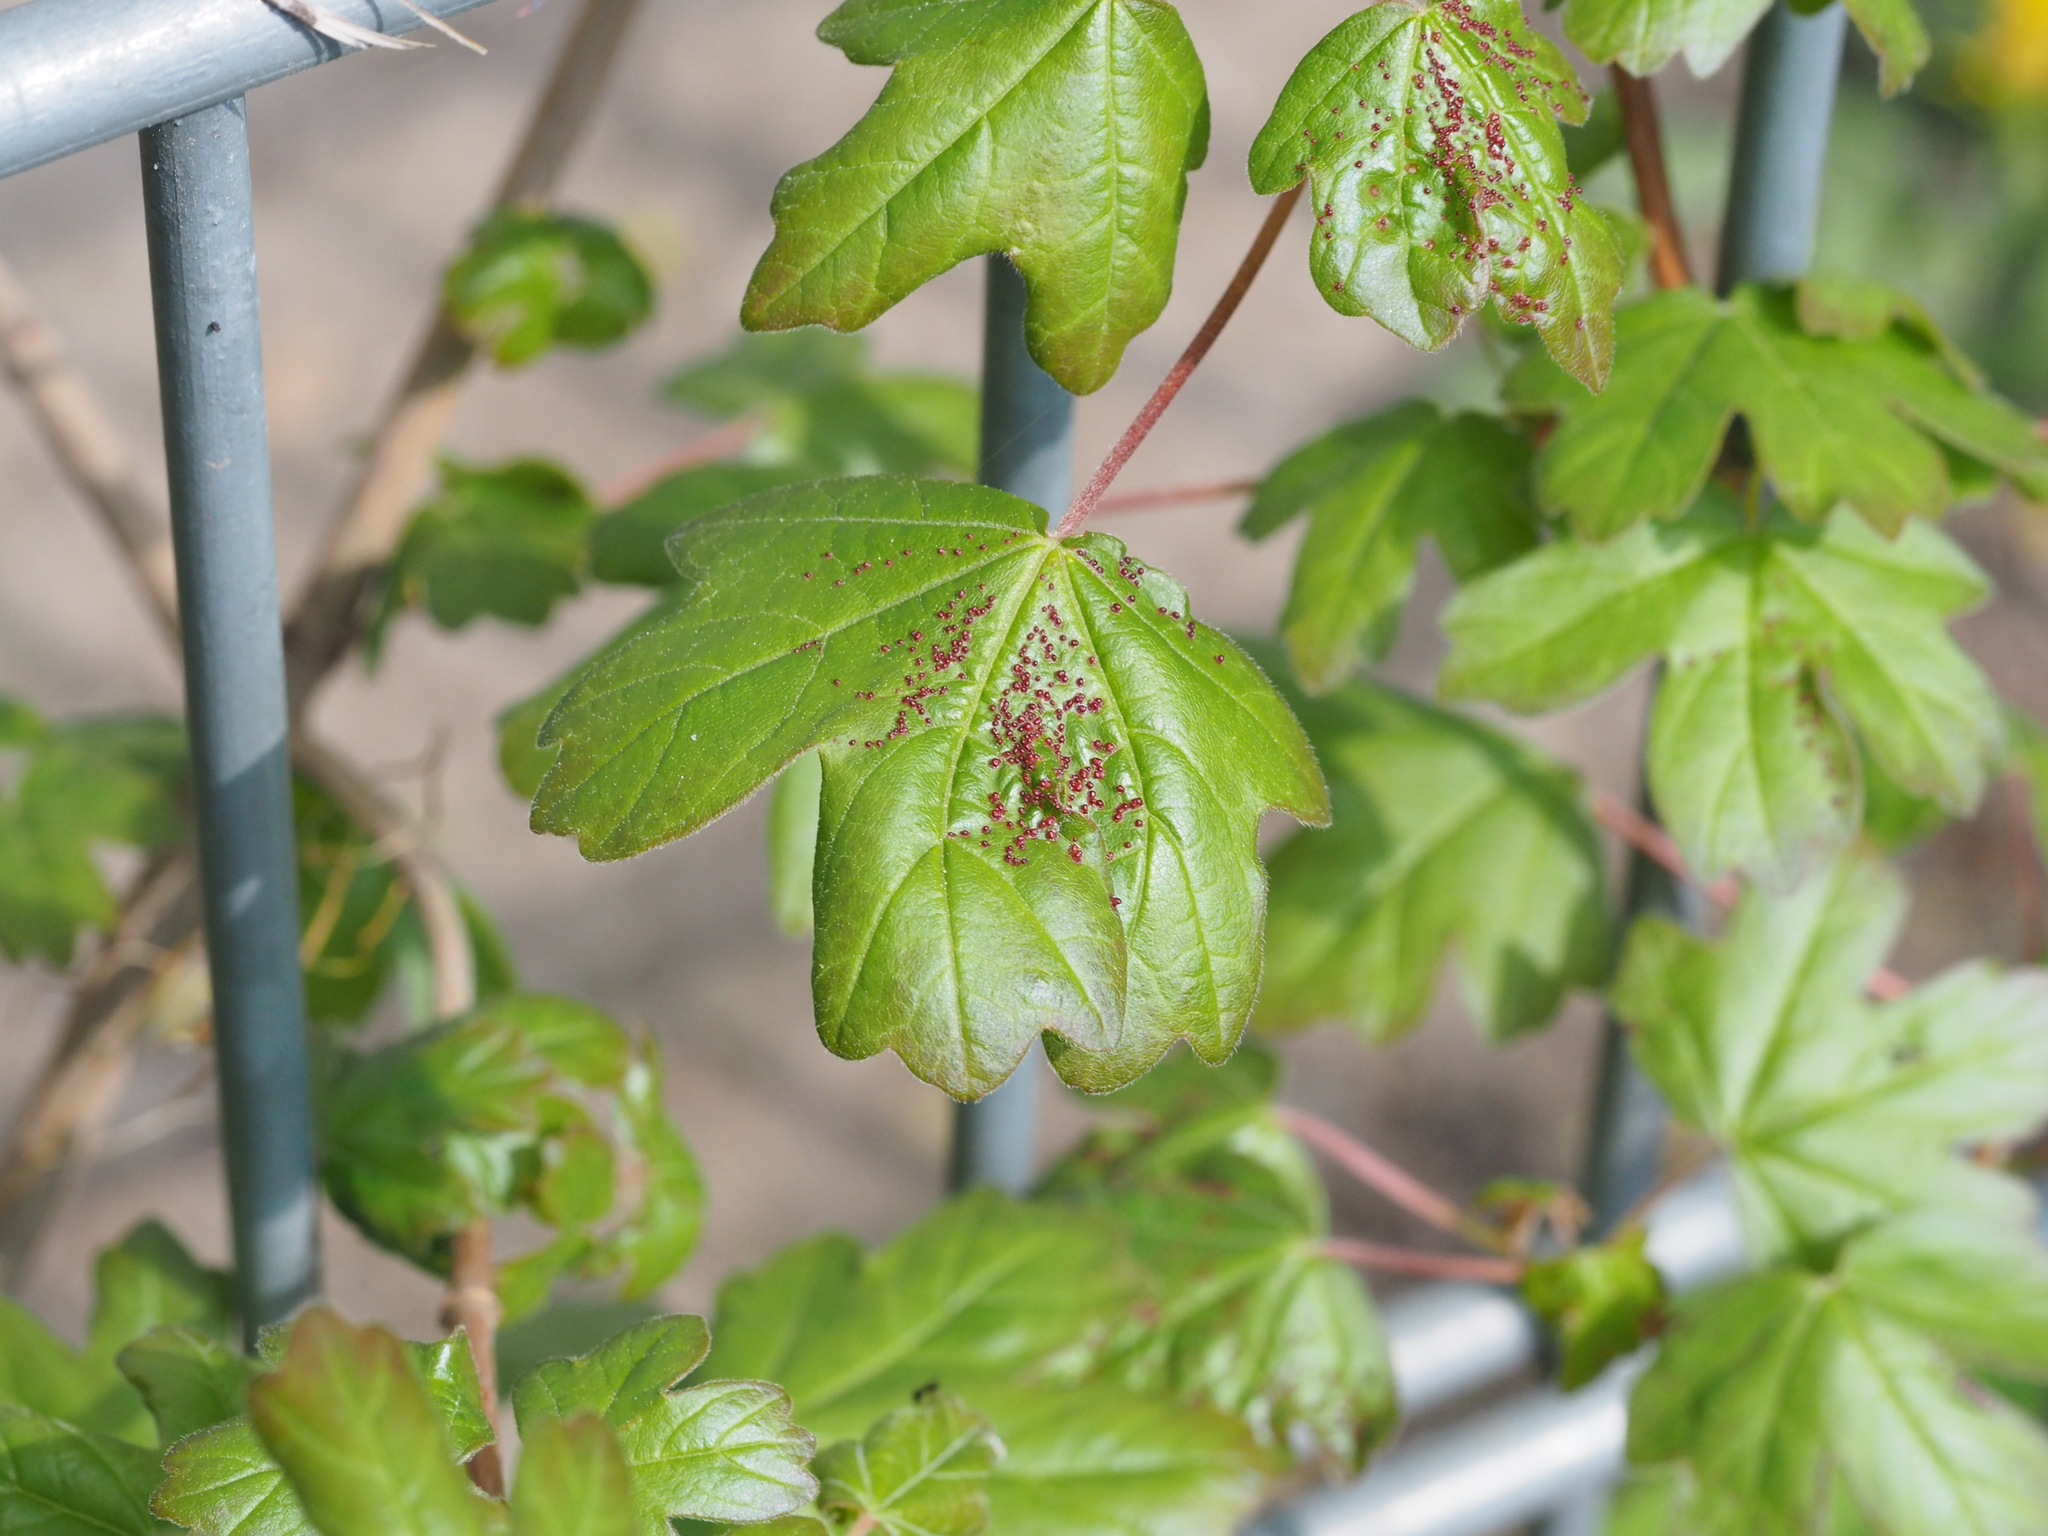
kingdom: Animalia
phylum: Arthropoda
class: Arachnida
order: Trombidiformes
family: Eriophyidae
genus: Aceria
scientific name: Aceria myriadeum
